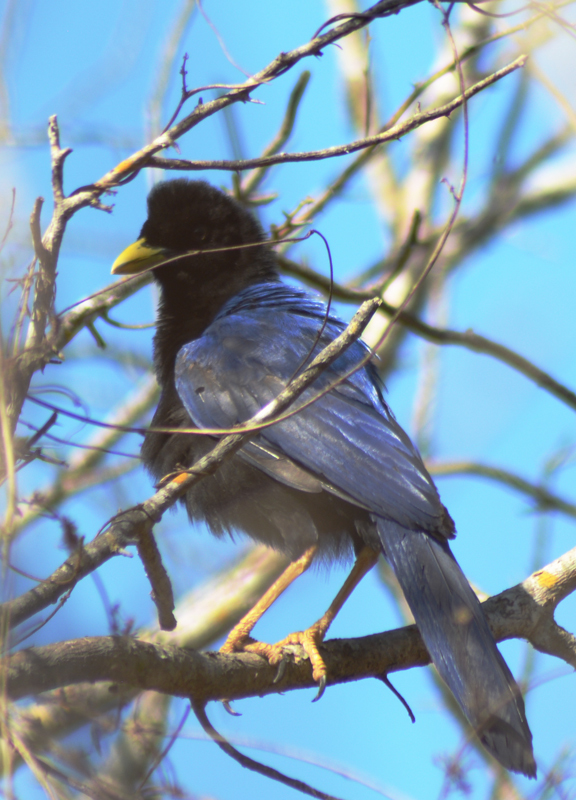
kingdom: Animalia
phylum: Chordata
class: Aves
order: Passeriformes
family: Corvidae
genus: Cyanocorax
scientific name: Cyanocorax beecheii
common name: Purplish-backed jay
